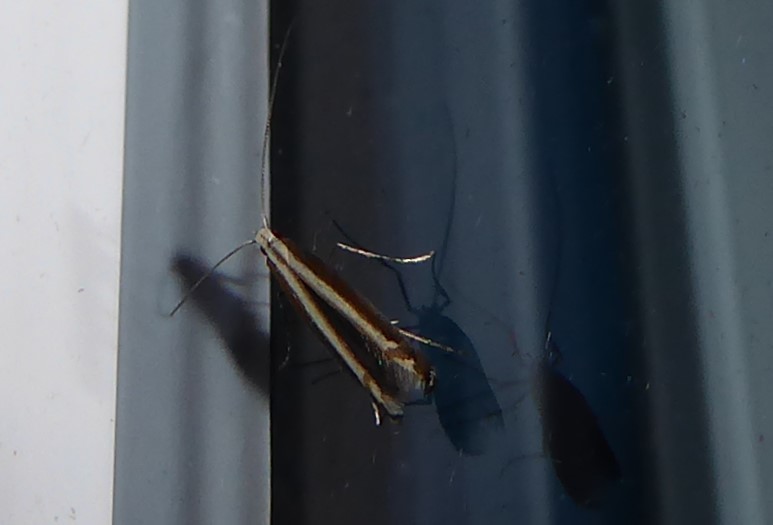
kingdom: Animalia
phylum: Arthropoda
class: Insecta
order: Lepidoptera
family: Gracillariidae
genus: Acrocercops
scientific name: Acrocercops laciniella
